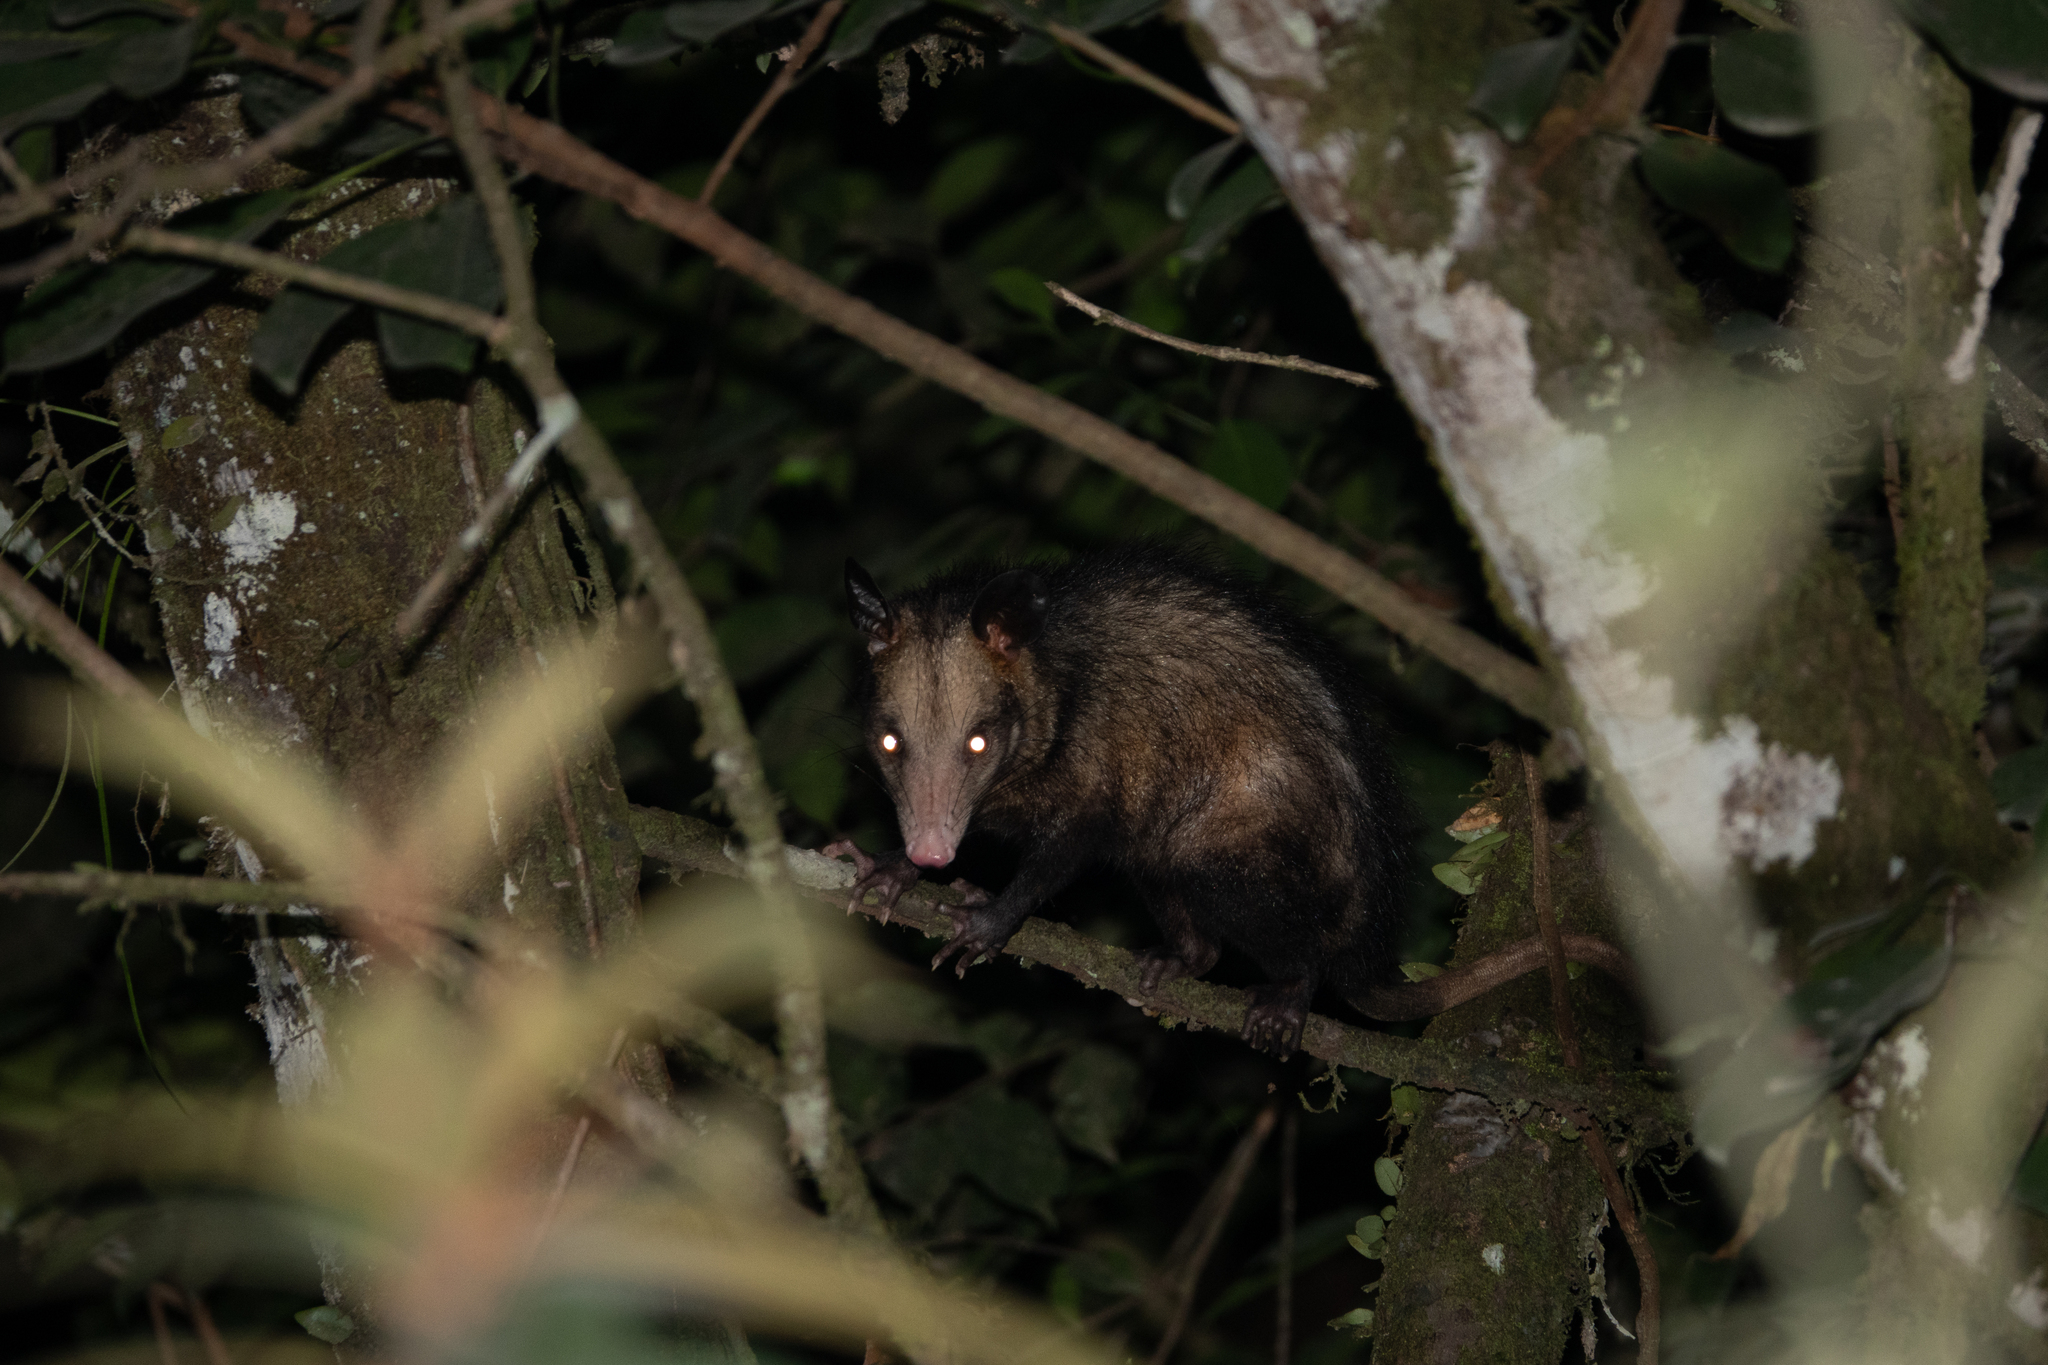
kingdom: Animalia
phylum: Chordata
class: Mammalia
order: Didelphimorphia
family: Didelphidae
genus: Didelphis
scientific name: Didelphis marsupialis
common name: Common opossum
